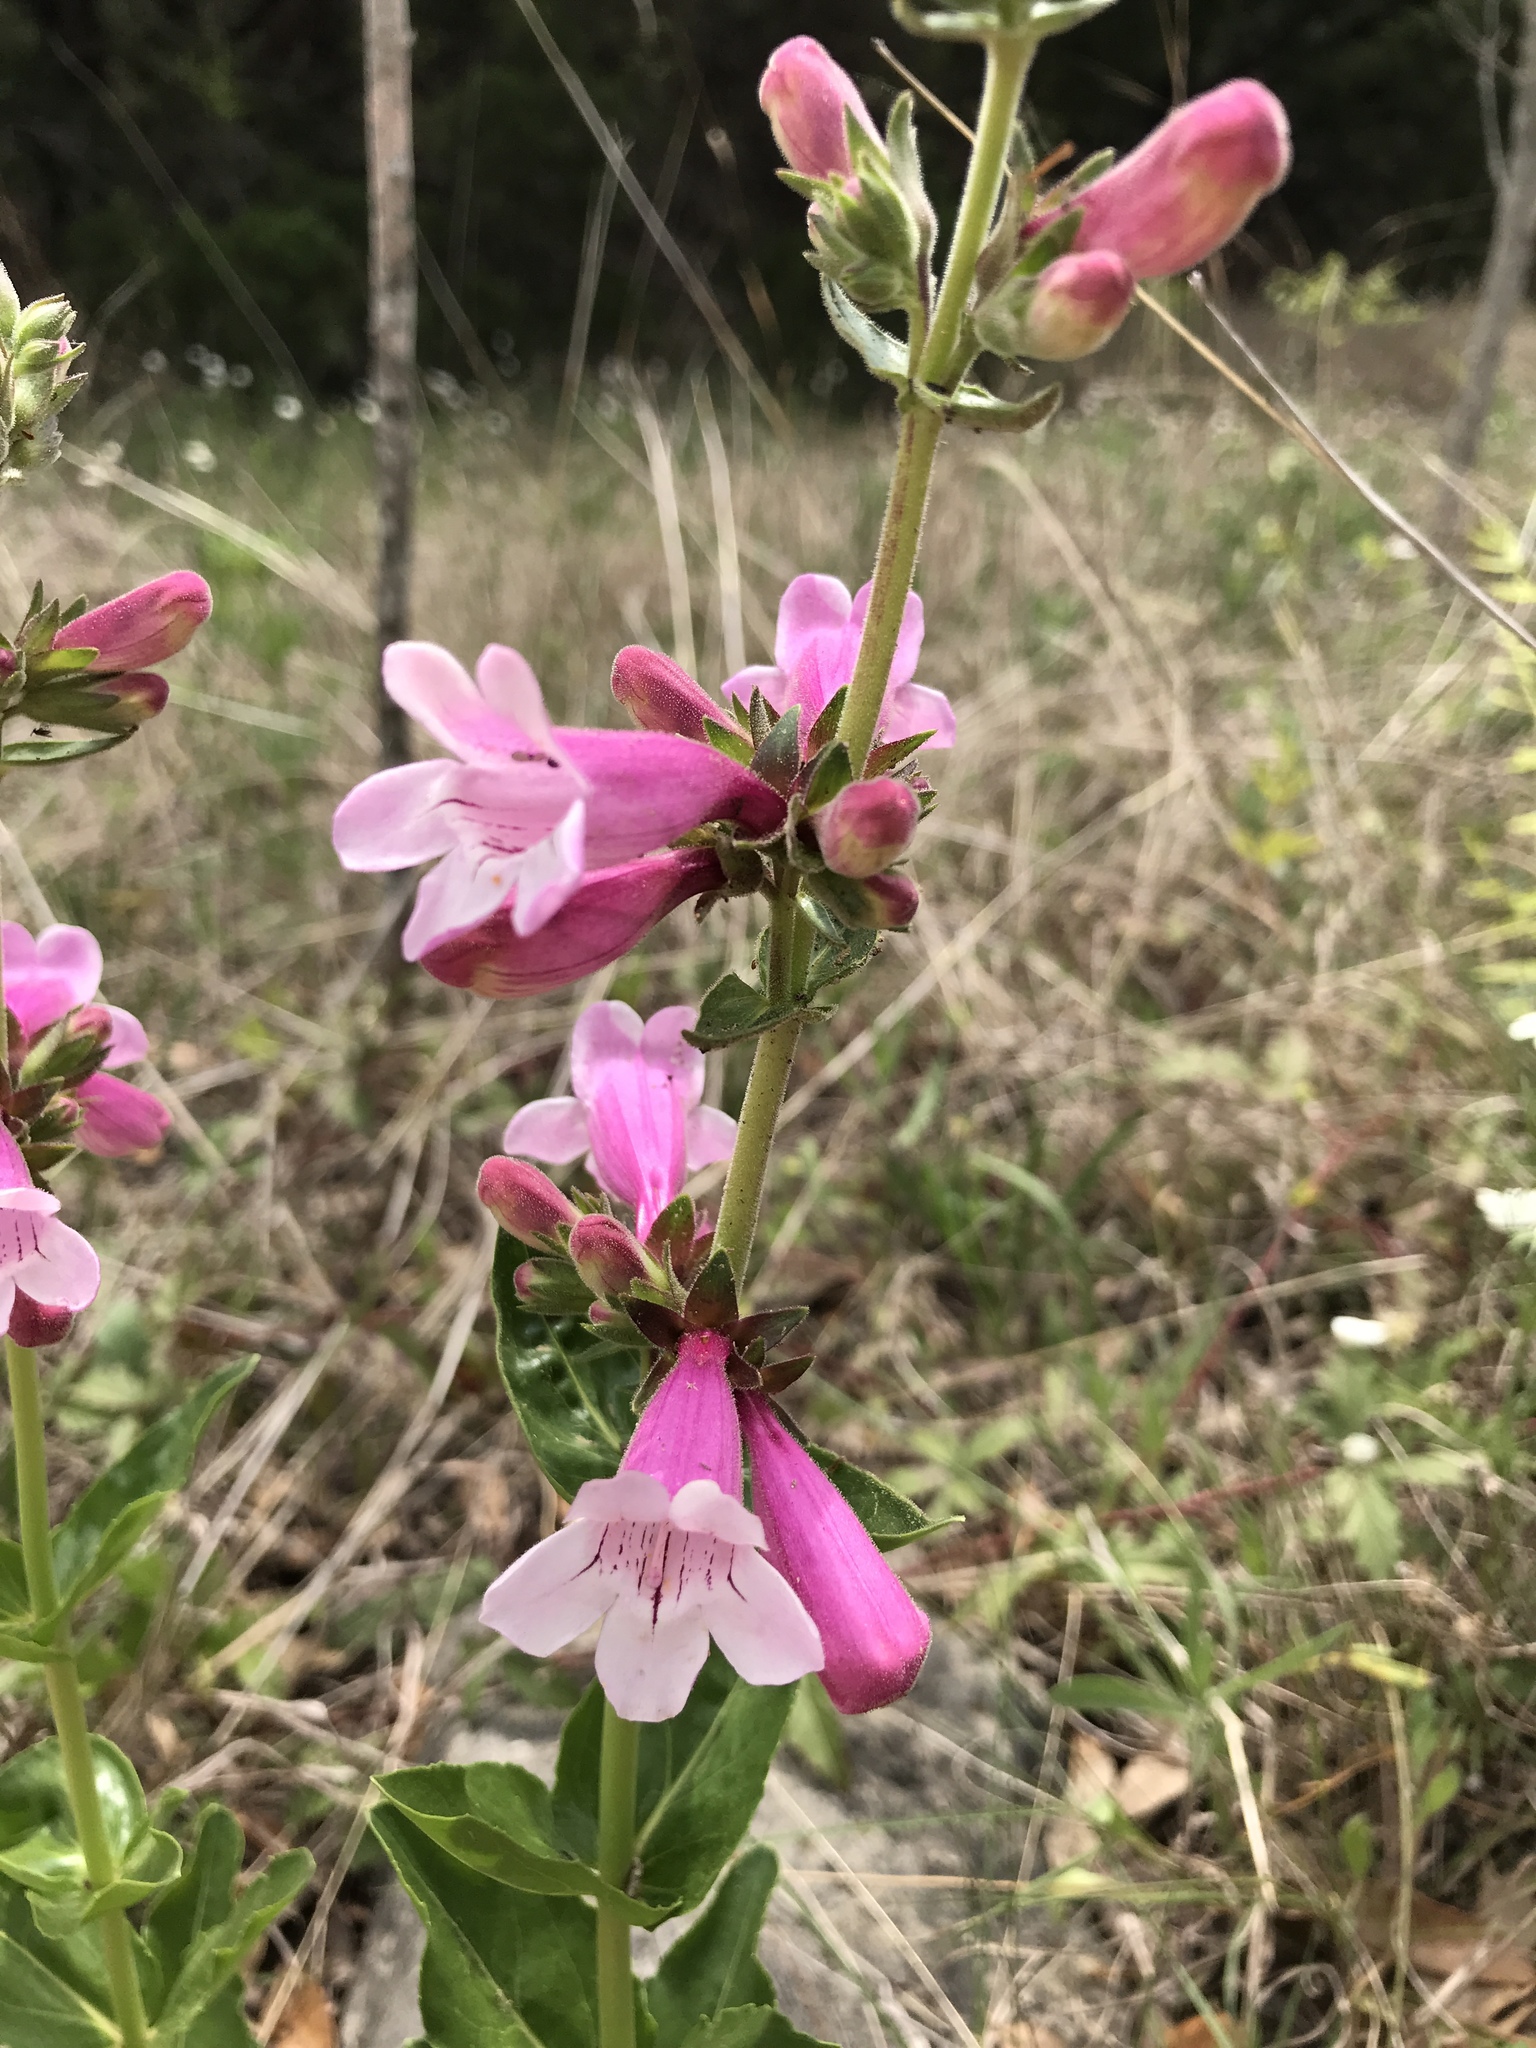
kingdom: Plantae
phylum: Tracheophyta
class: Magnoliopsida
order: Lamiales
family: Plantaginaceae
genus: Penstemon
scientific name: Penstemon cobaea
